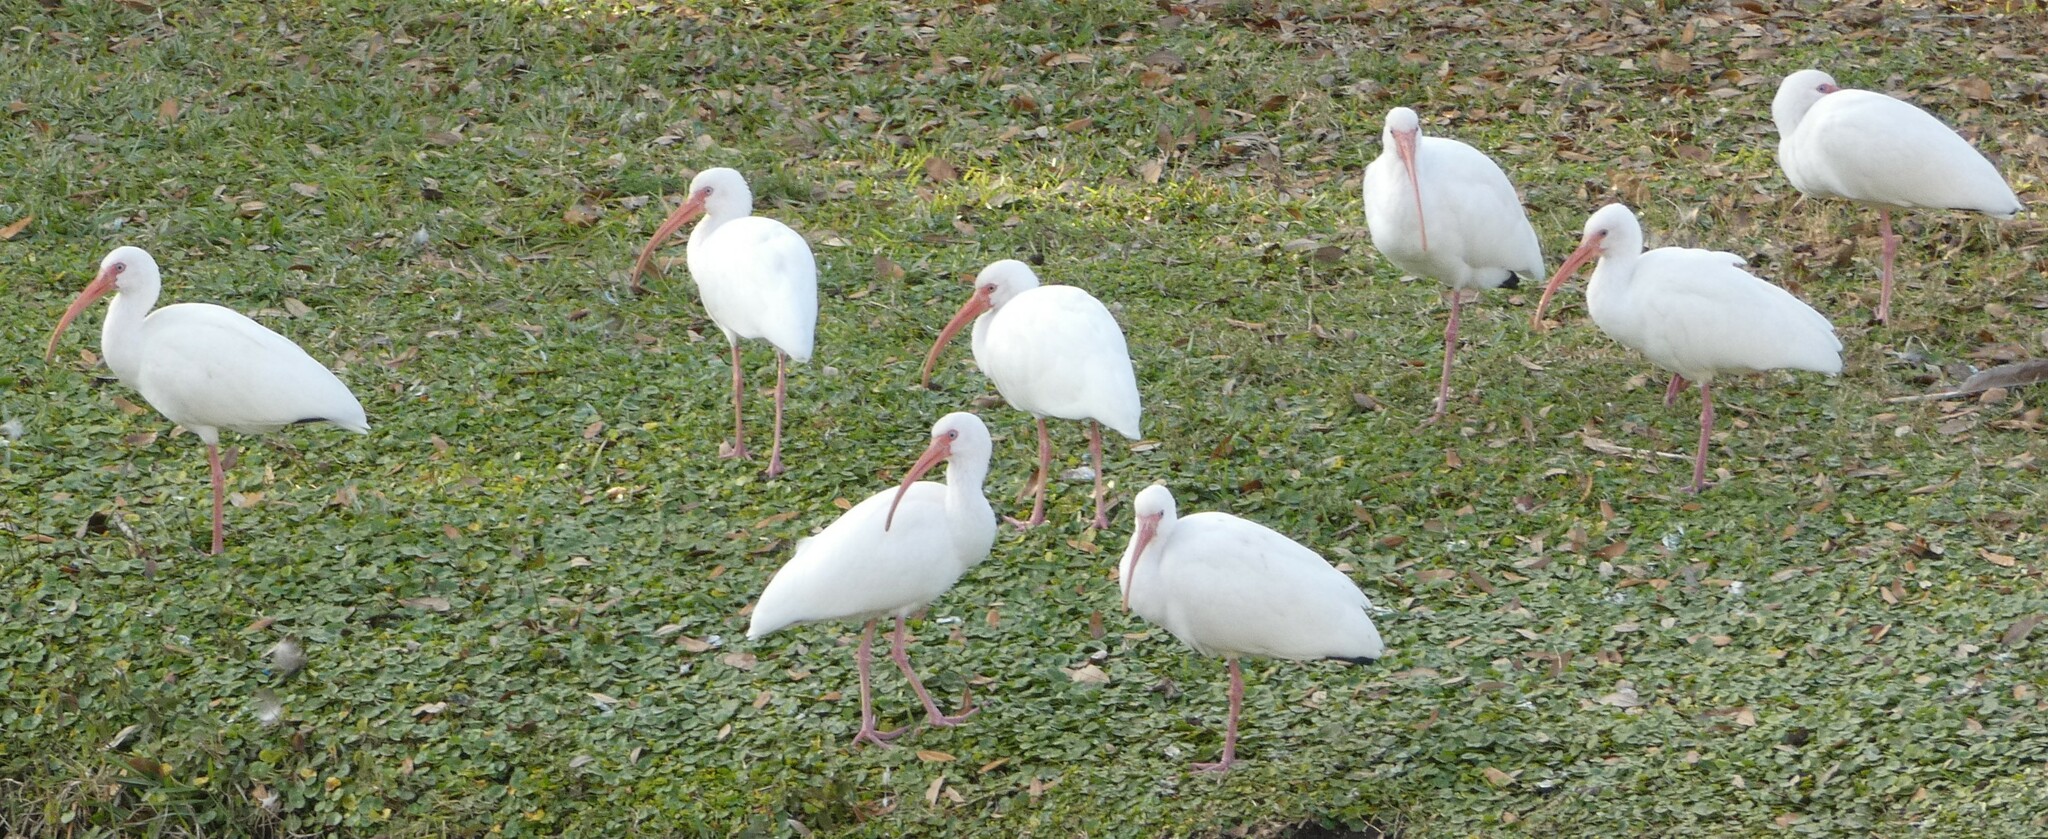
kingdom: Animalia
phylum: Chordata
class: Aves
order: Pelecaniformes
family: Threskiornithidae
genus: Eudocimus
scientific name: Eudocimus albus
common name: White ibis
